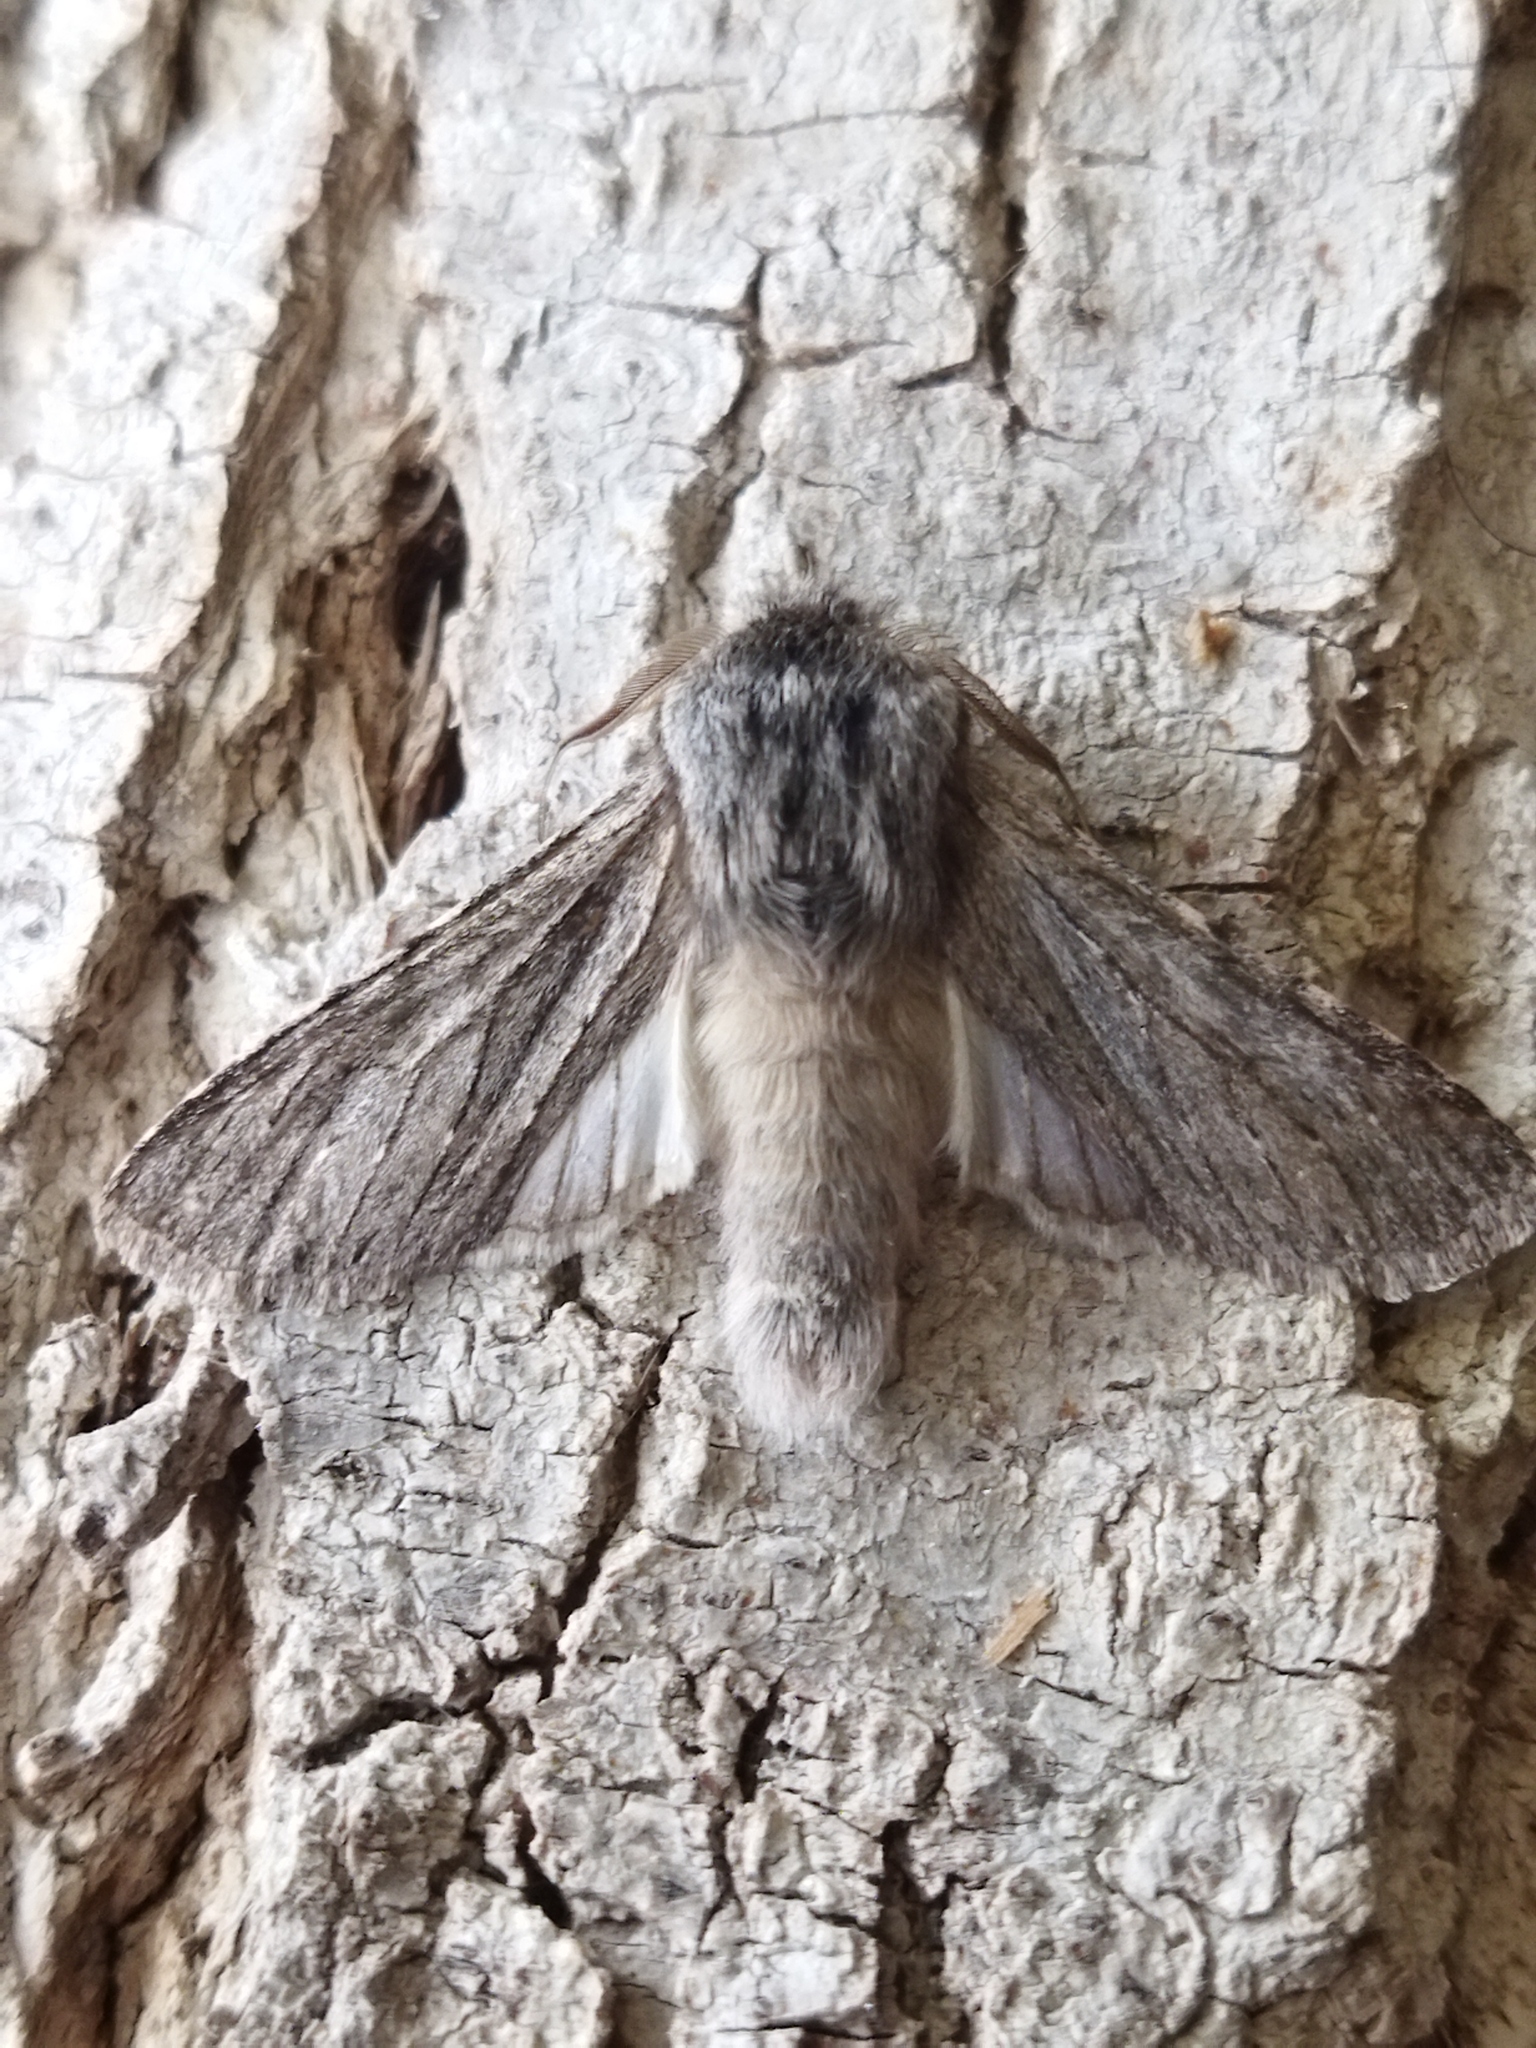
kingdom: Animalia
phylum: Arthropoda
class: Insecta
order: Lepidoptera
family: Notodontidae
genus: Dicranura
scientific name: Dicranura ulmi
